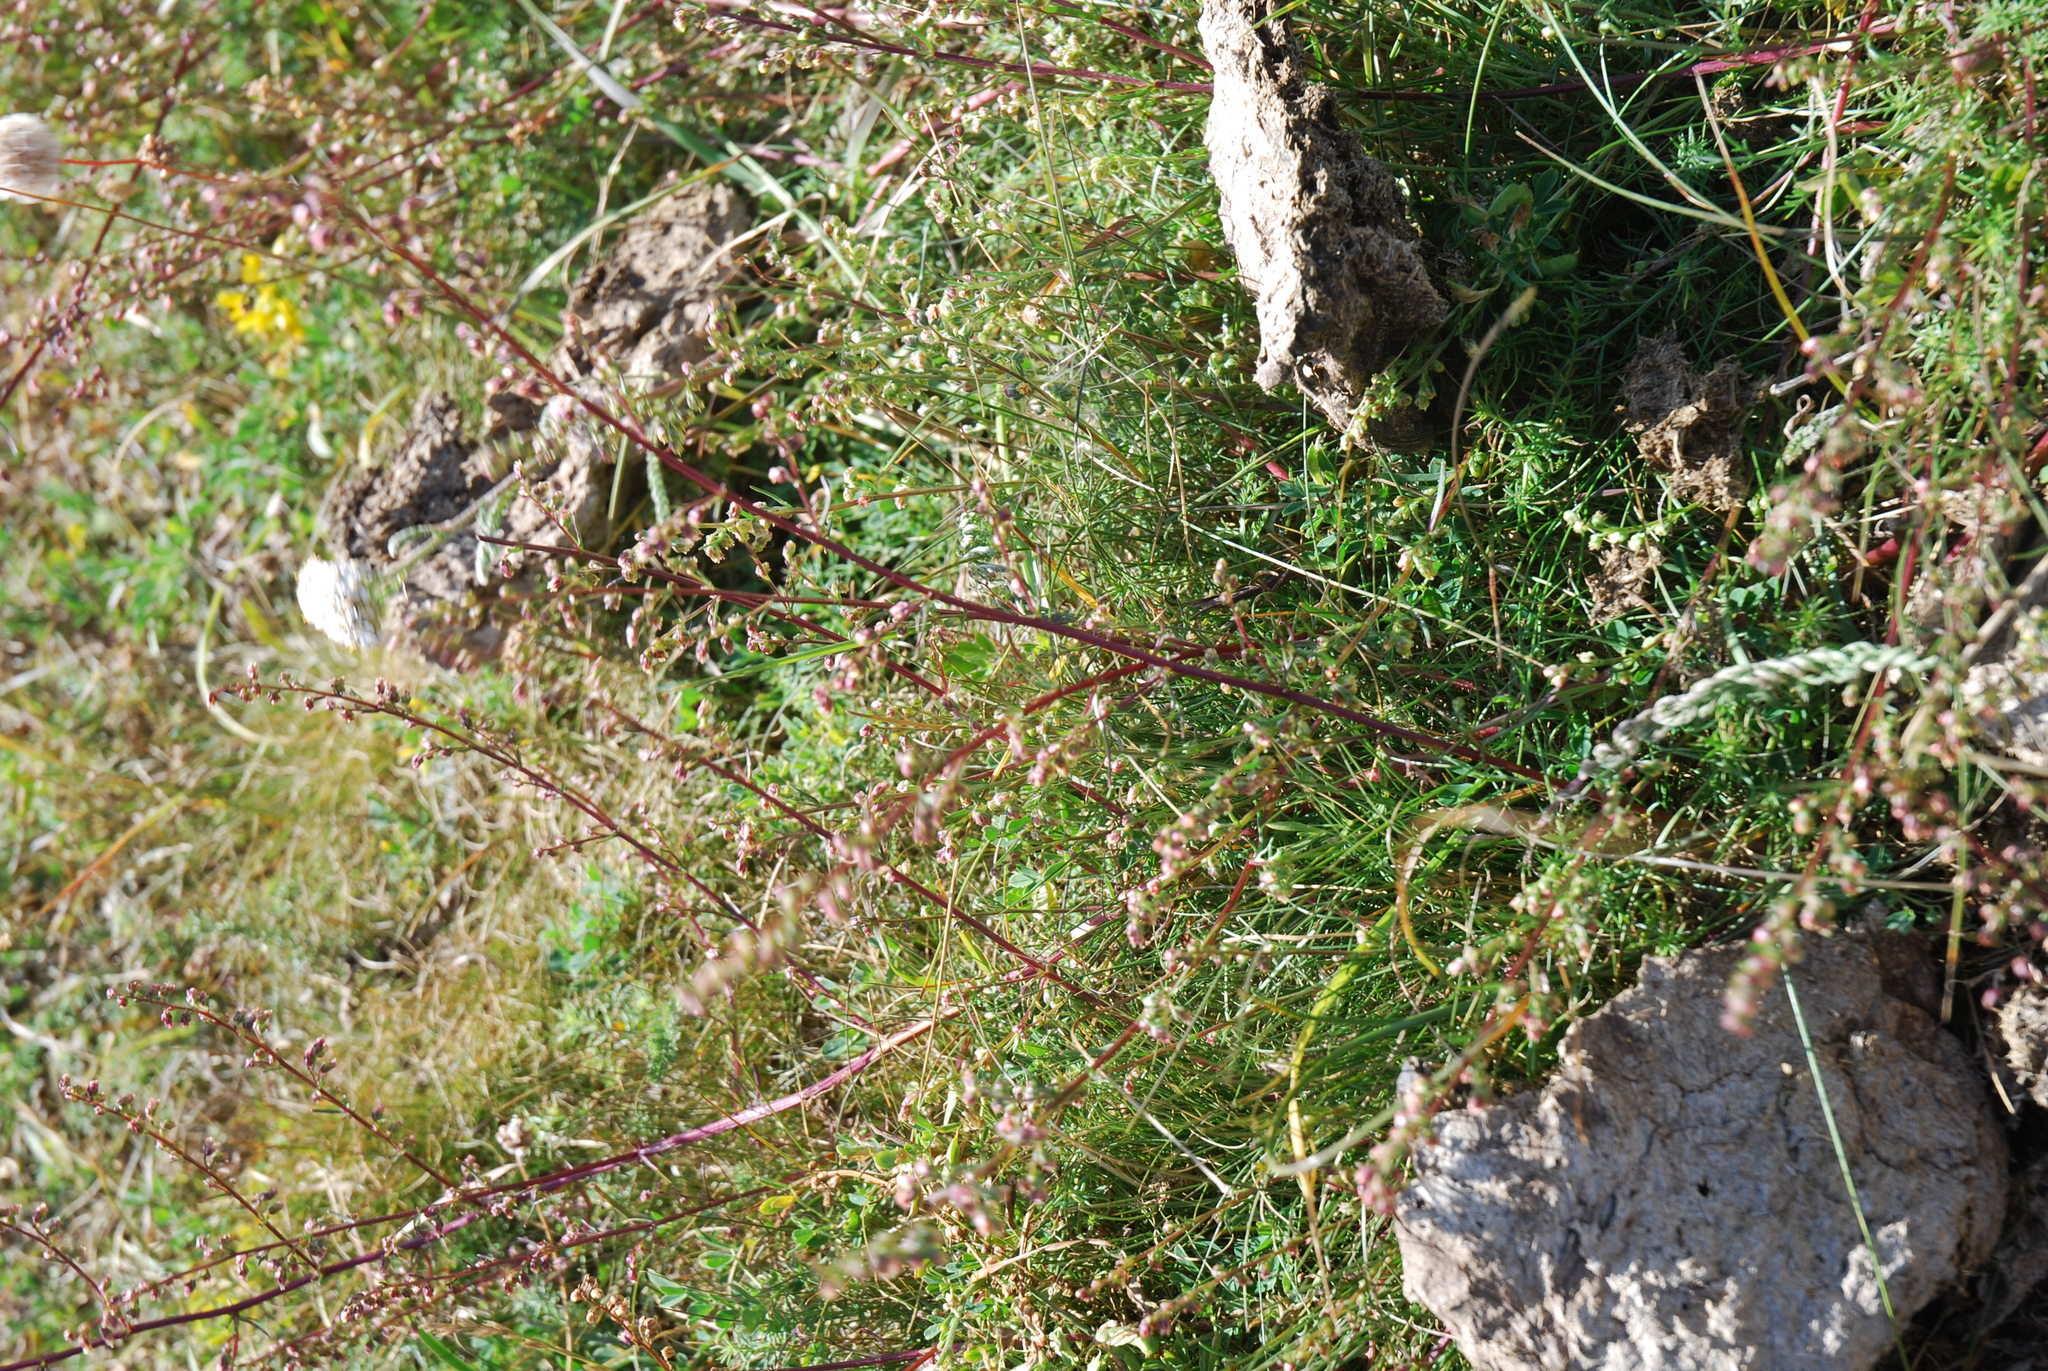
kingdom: Plantae
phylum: Tracheophyta
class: Magnoliopsida
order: Asterales
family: Asteraceae
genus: Artemisia
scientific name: Artemisia campestris
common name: Field wormwood
